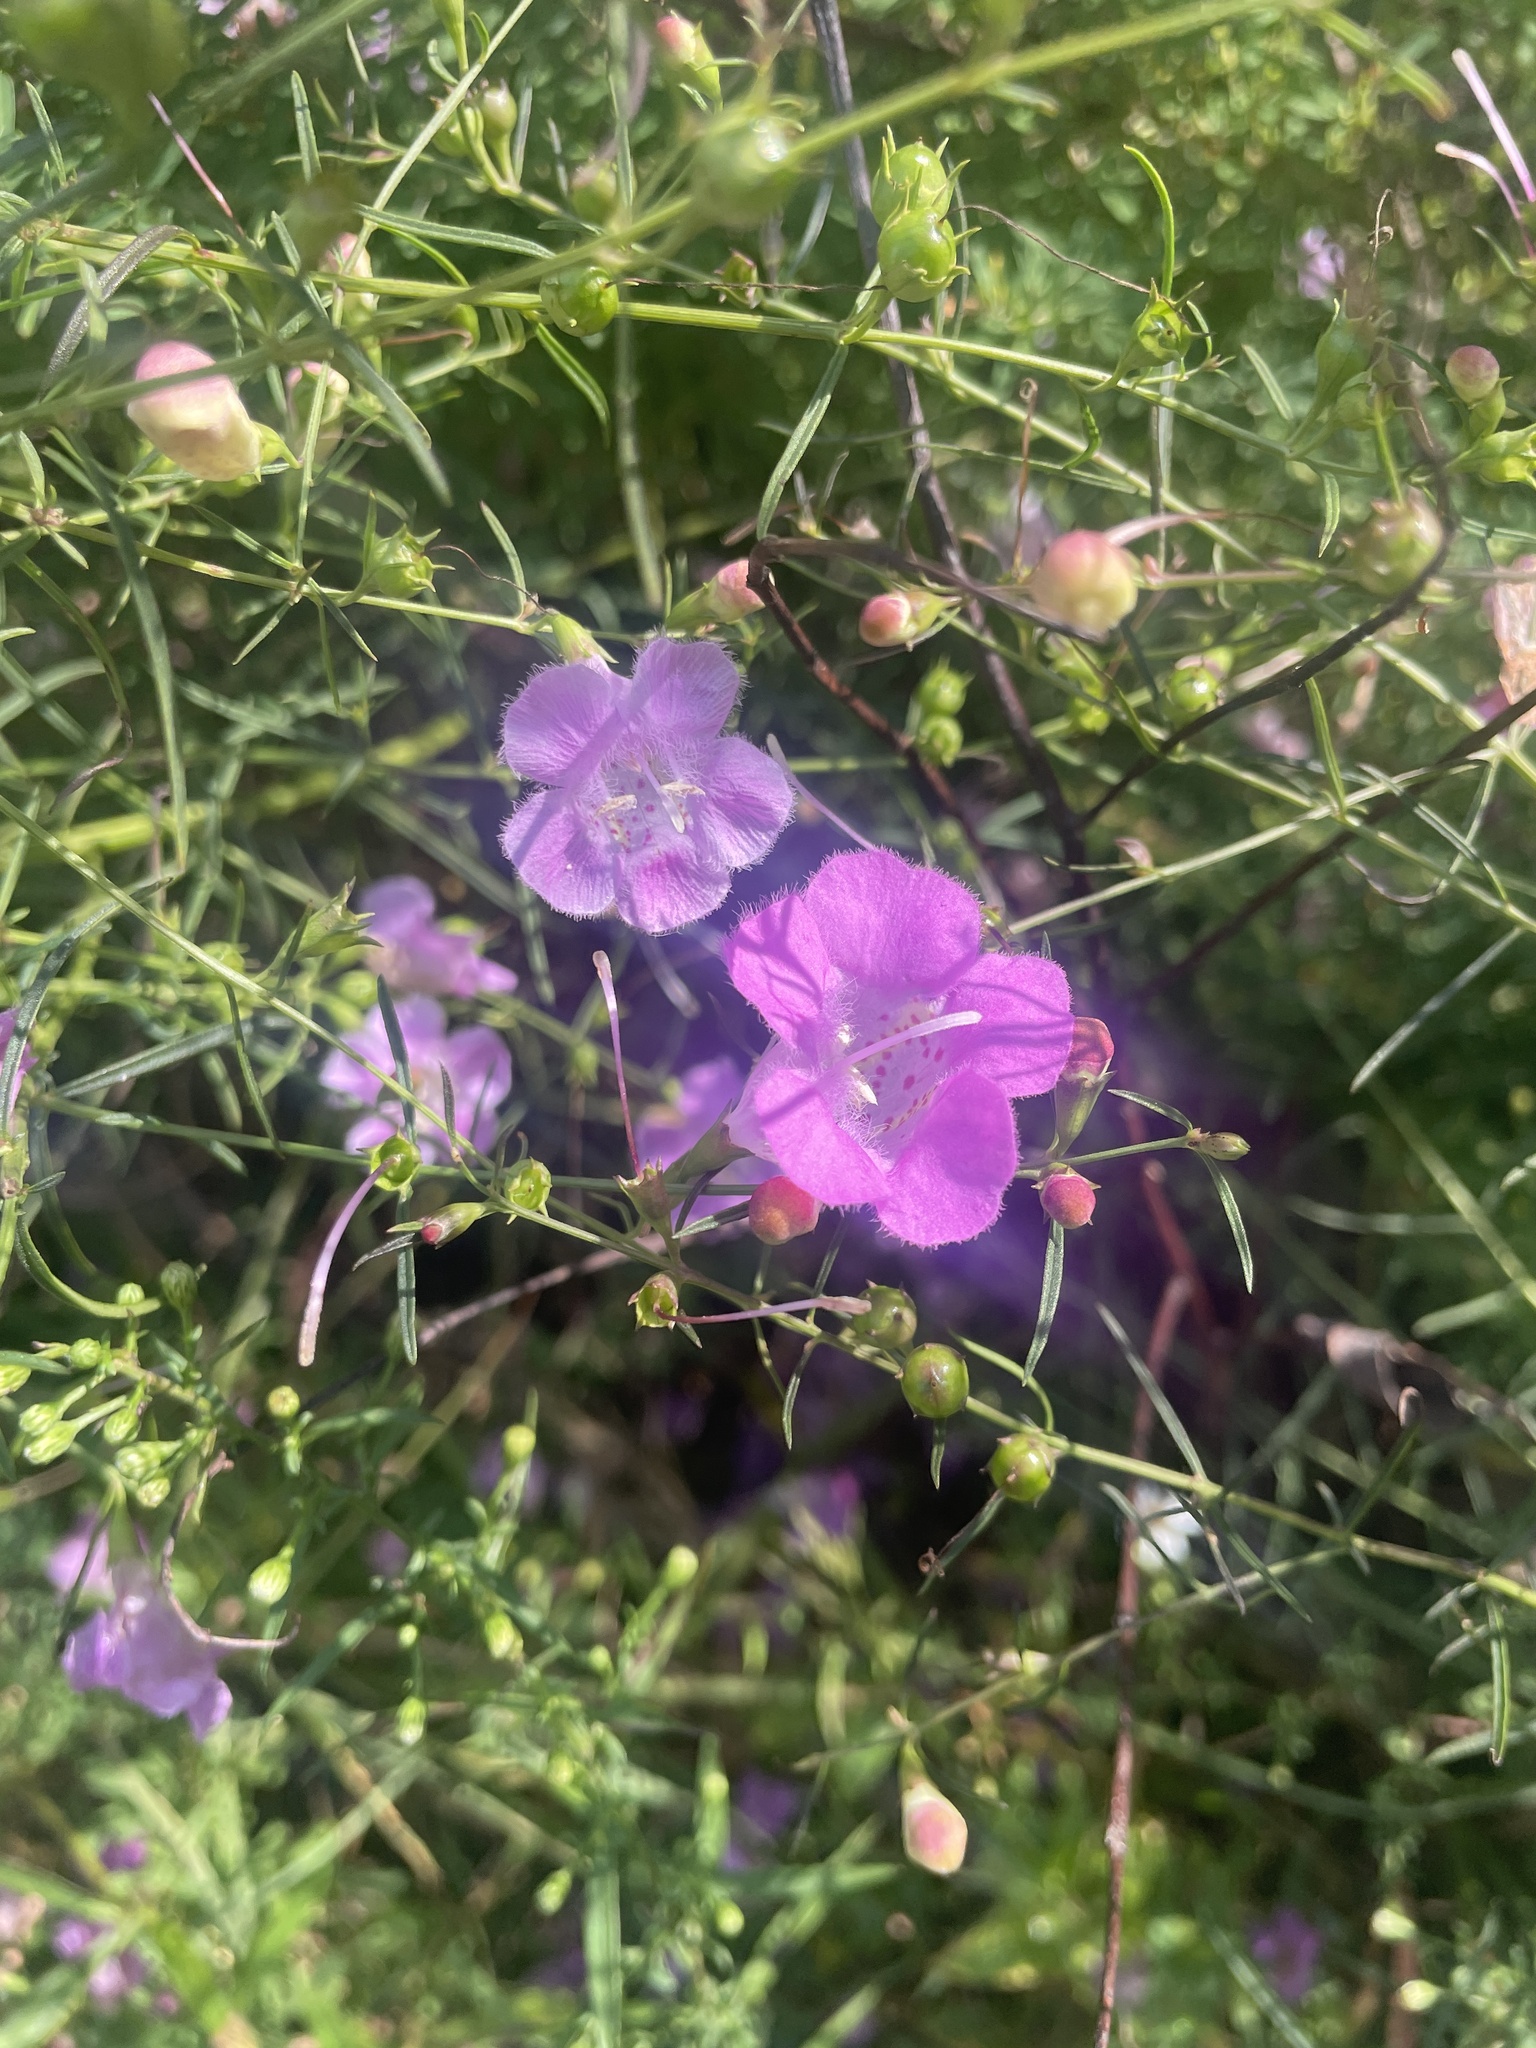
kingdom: Plantae
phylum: Tracheophyta
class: Magnoliopsida
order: Lamiales
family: Orobanchaceae
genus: Agalinis
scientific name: Agalinis purpurea
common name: Purple false foxglove
